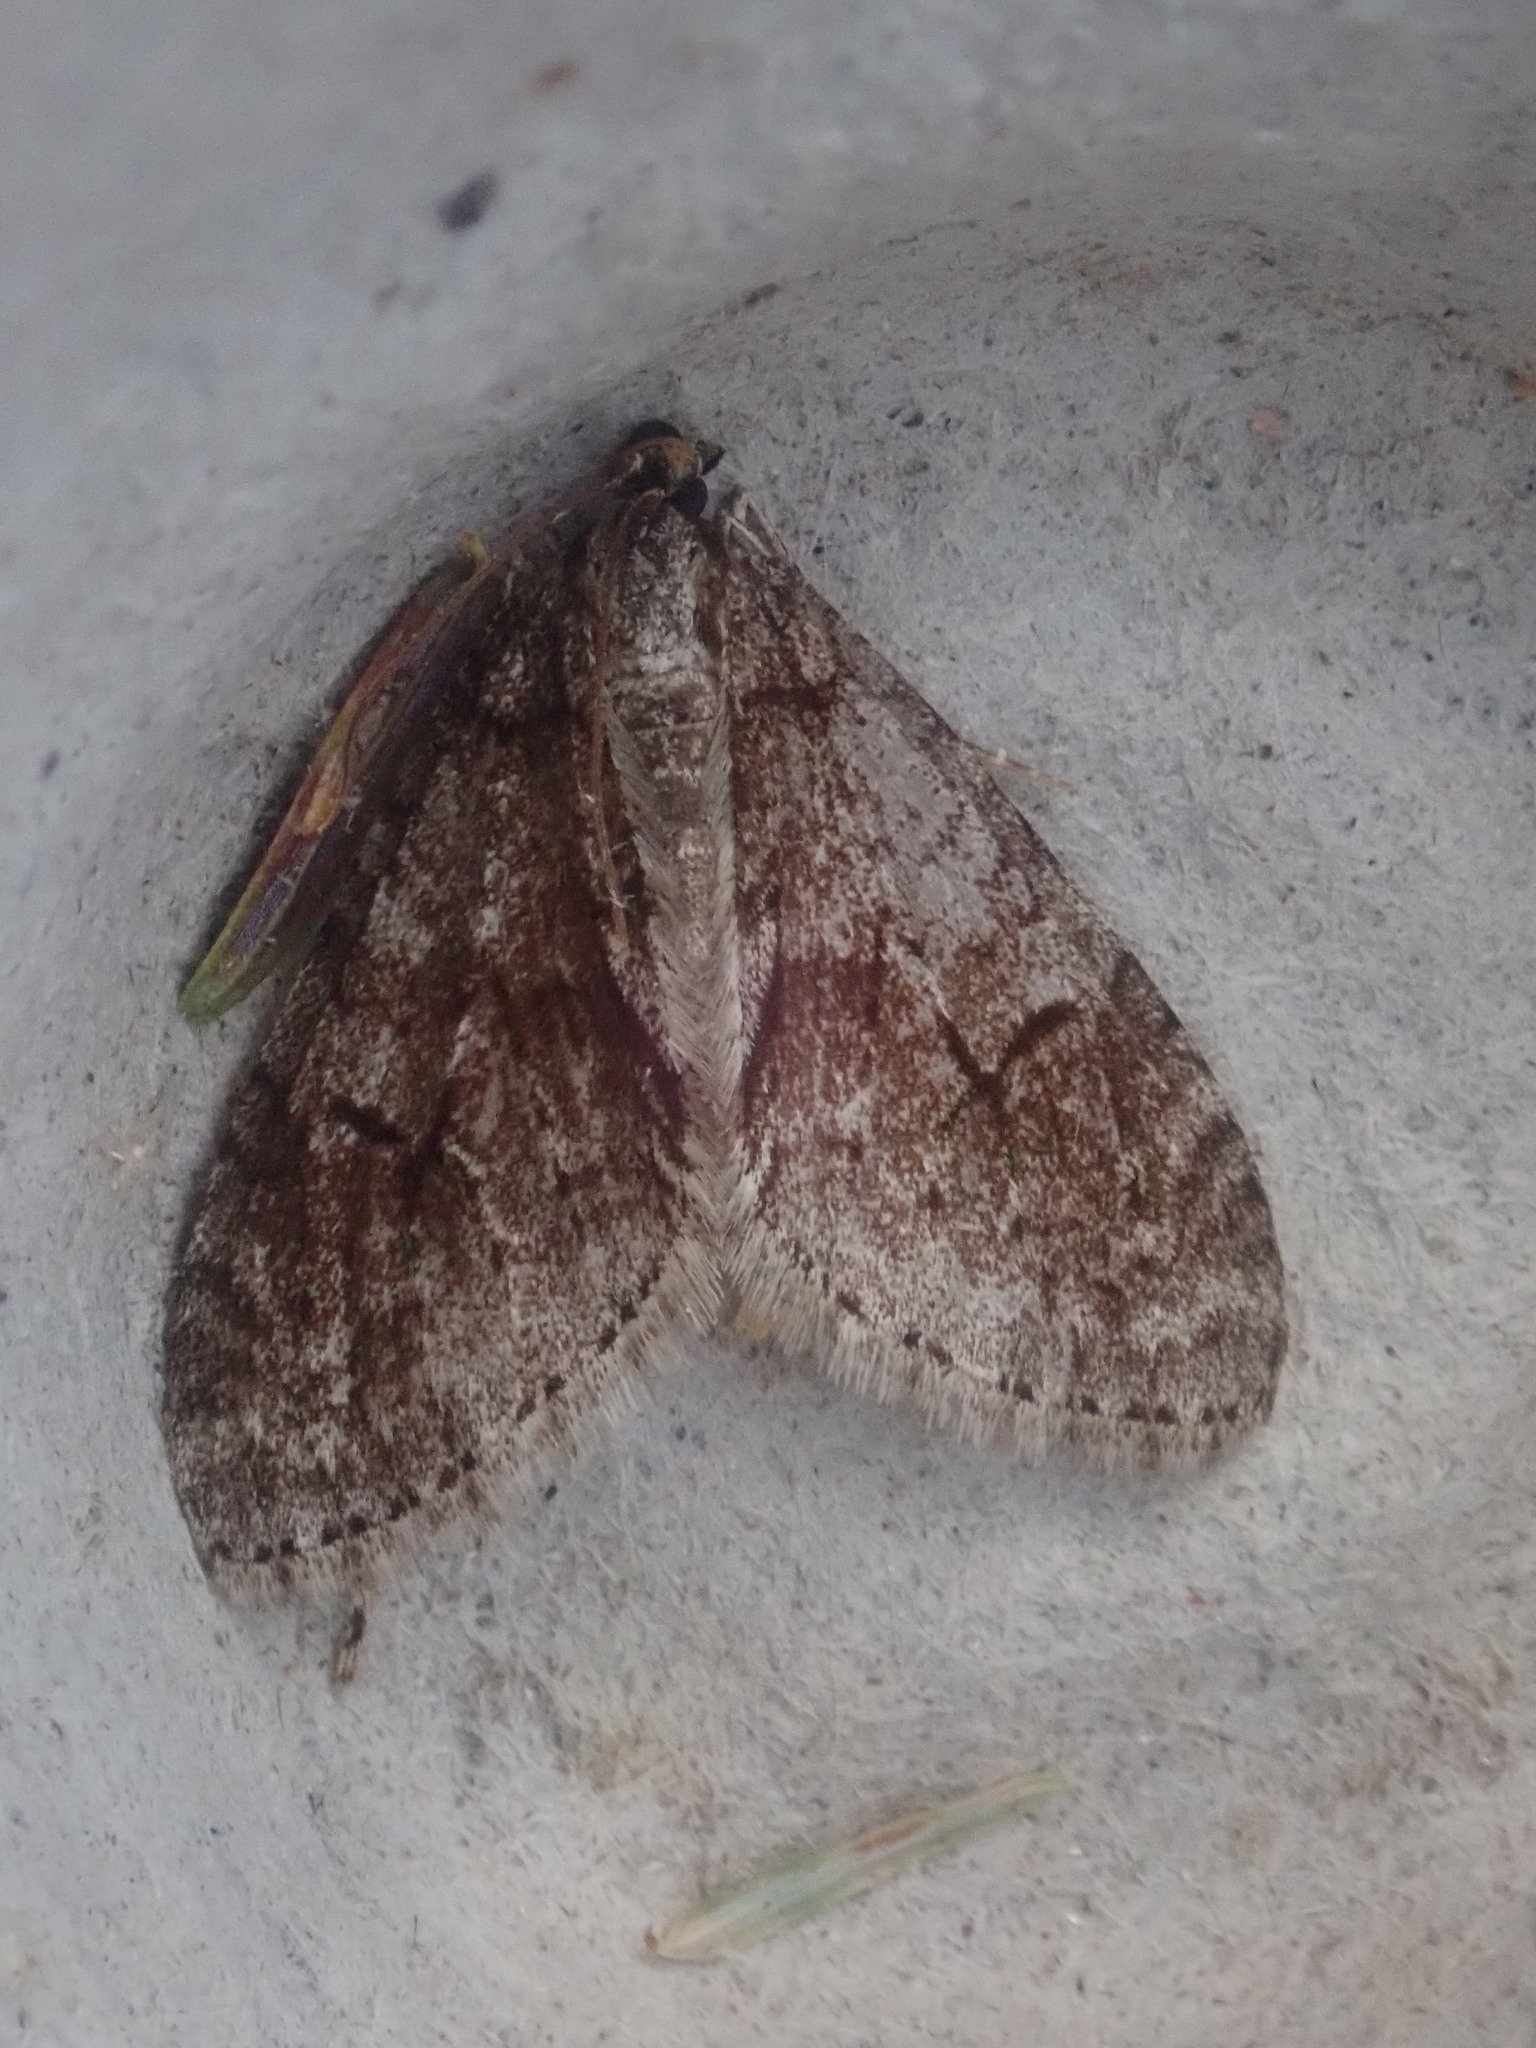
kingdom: Animalia
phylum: Arthropoda
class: Insecta
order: Lepidoptera
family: Geometridae
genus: Cladara
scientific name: Cladara limitaria
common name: Mottled gray carpet
